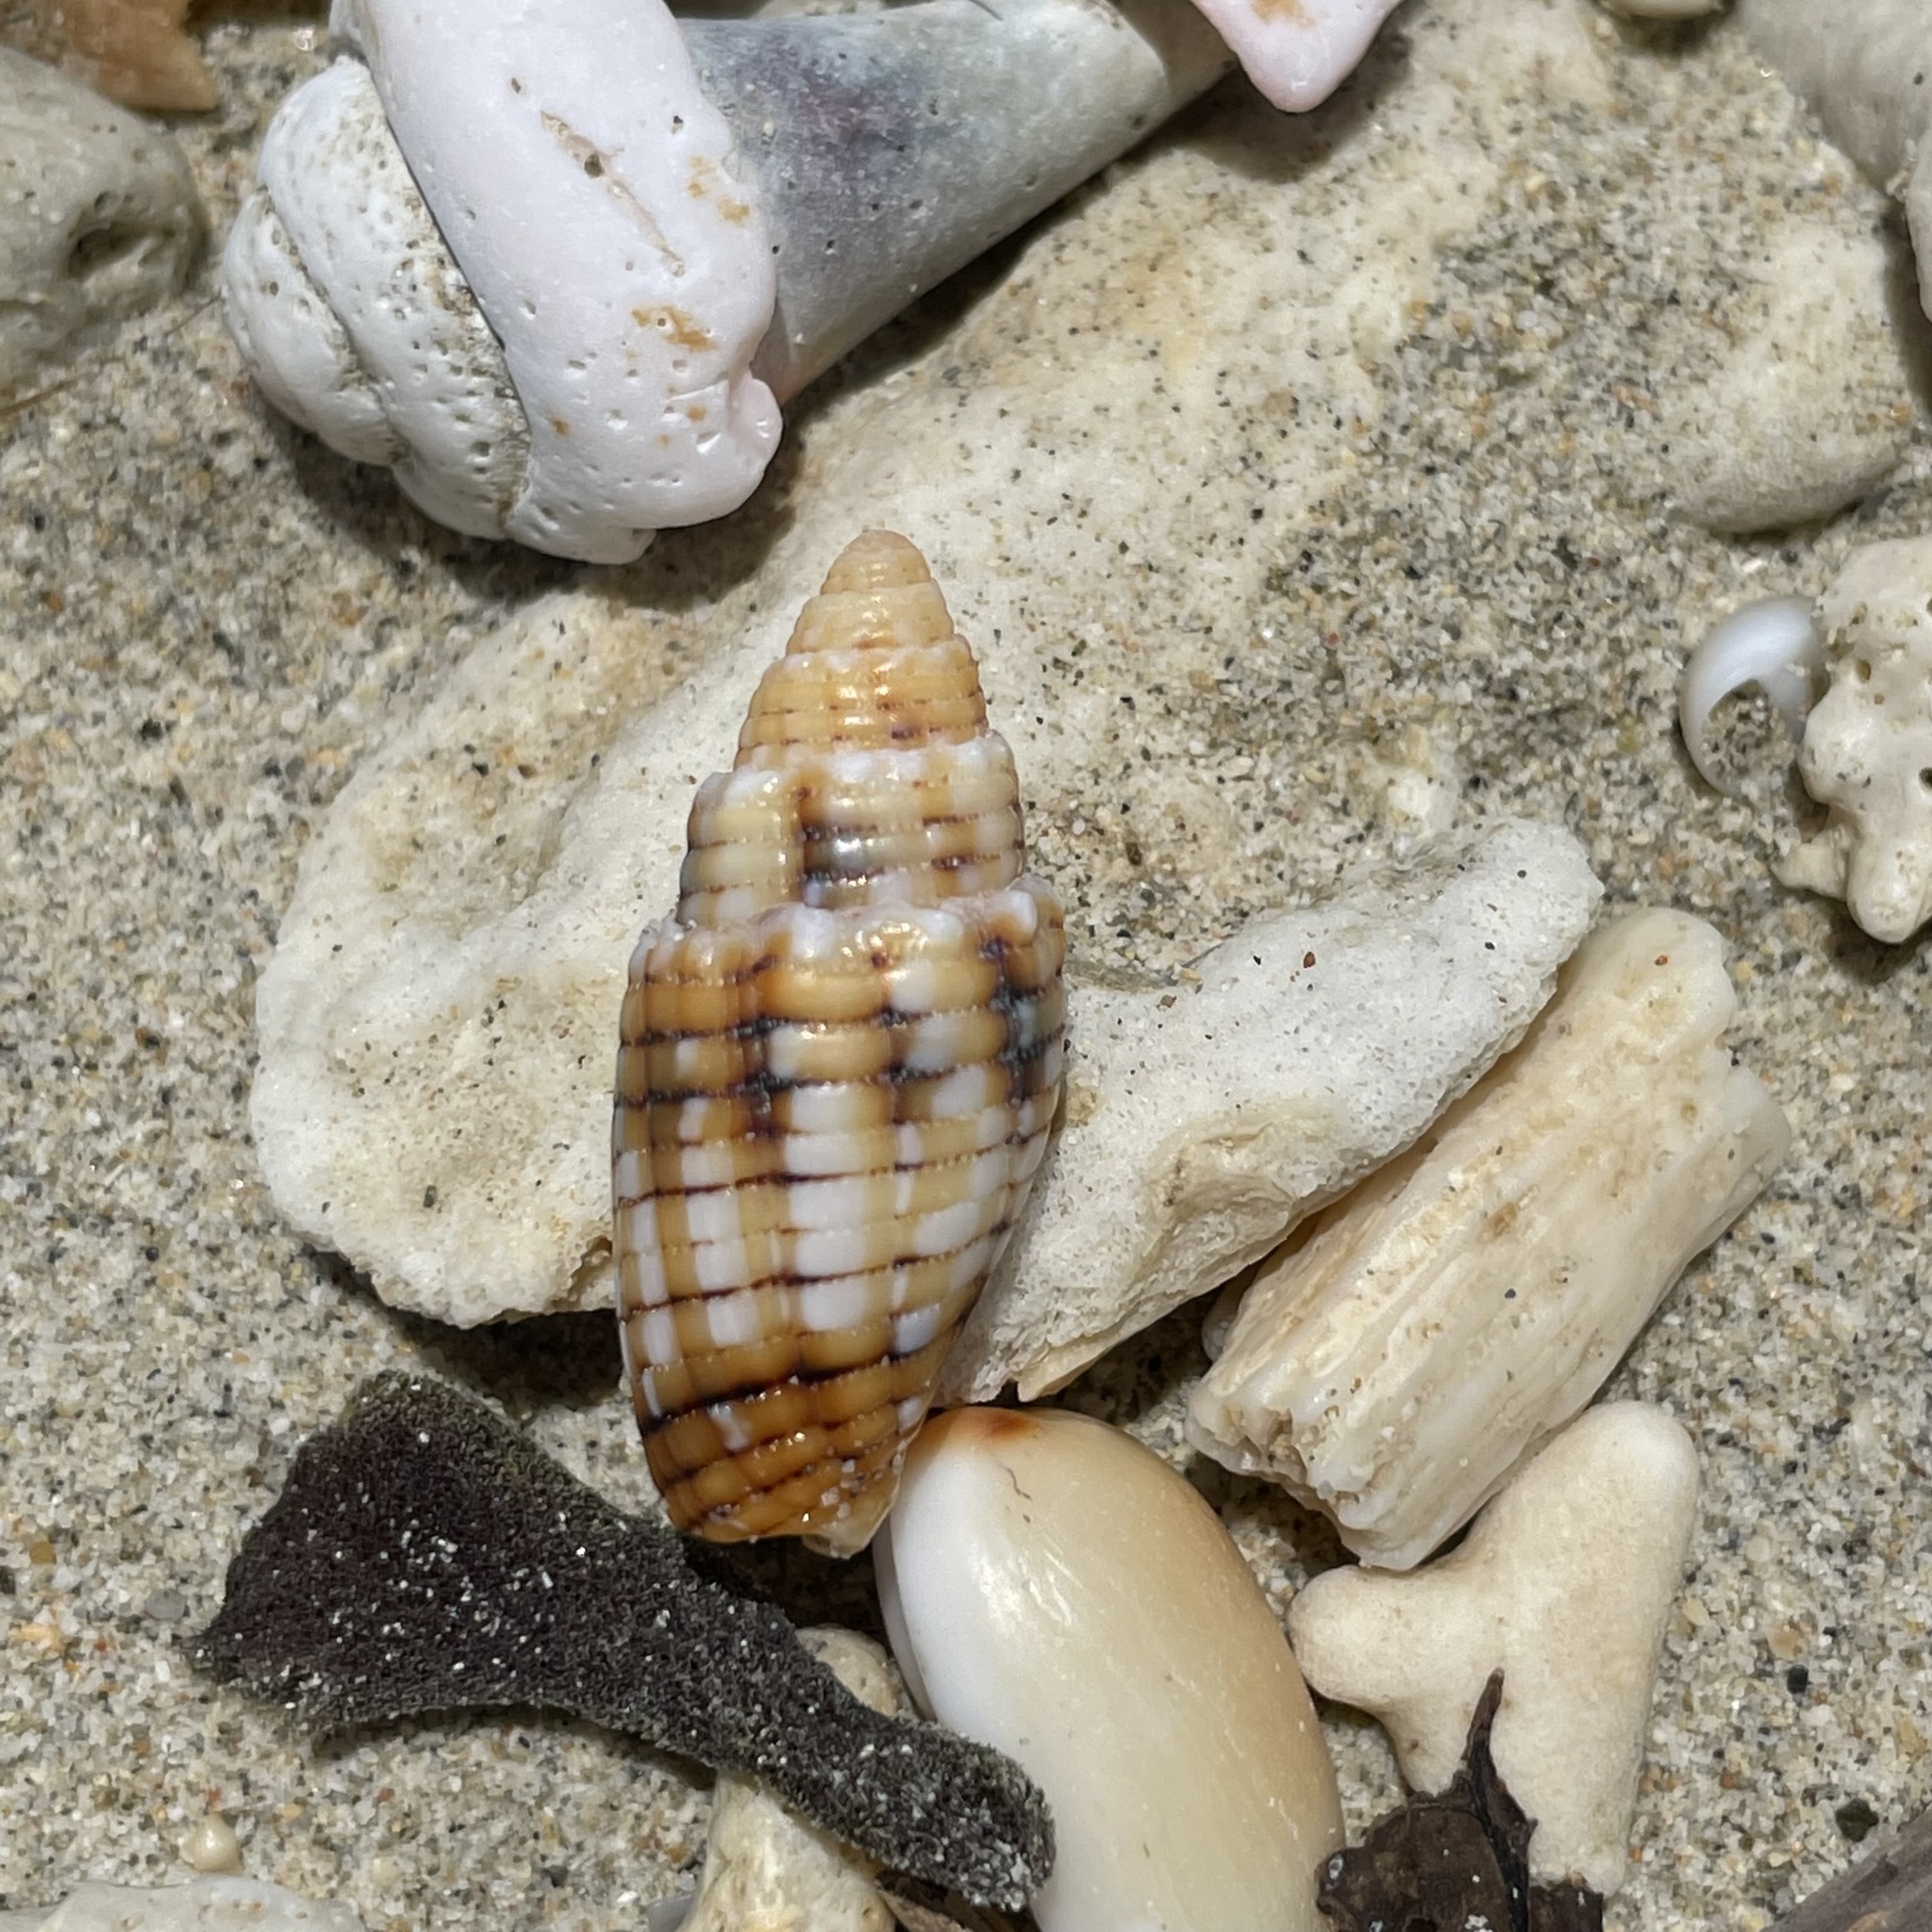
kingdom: Animalia
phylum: Mollusca
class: Gastropoda
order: Neogastropoda
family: Mitridae
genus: Quasimitra
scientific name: Quasimitra puncticulata
